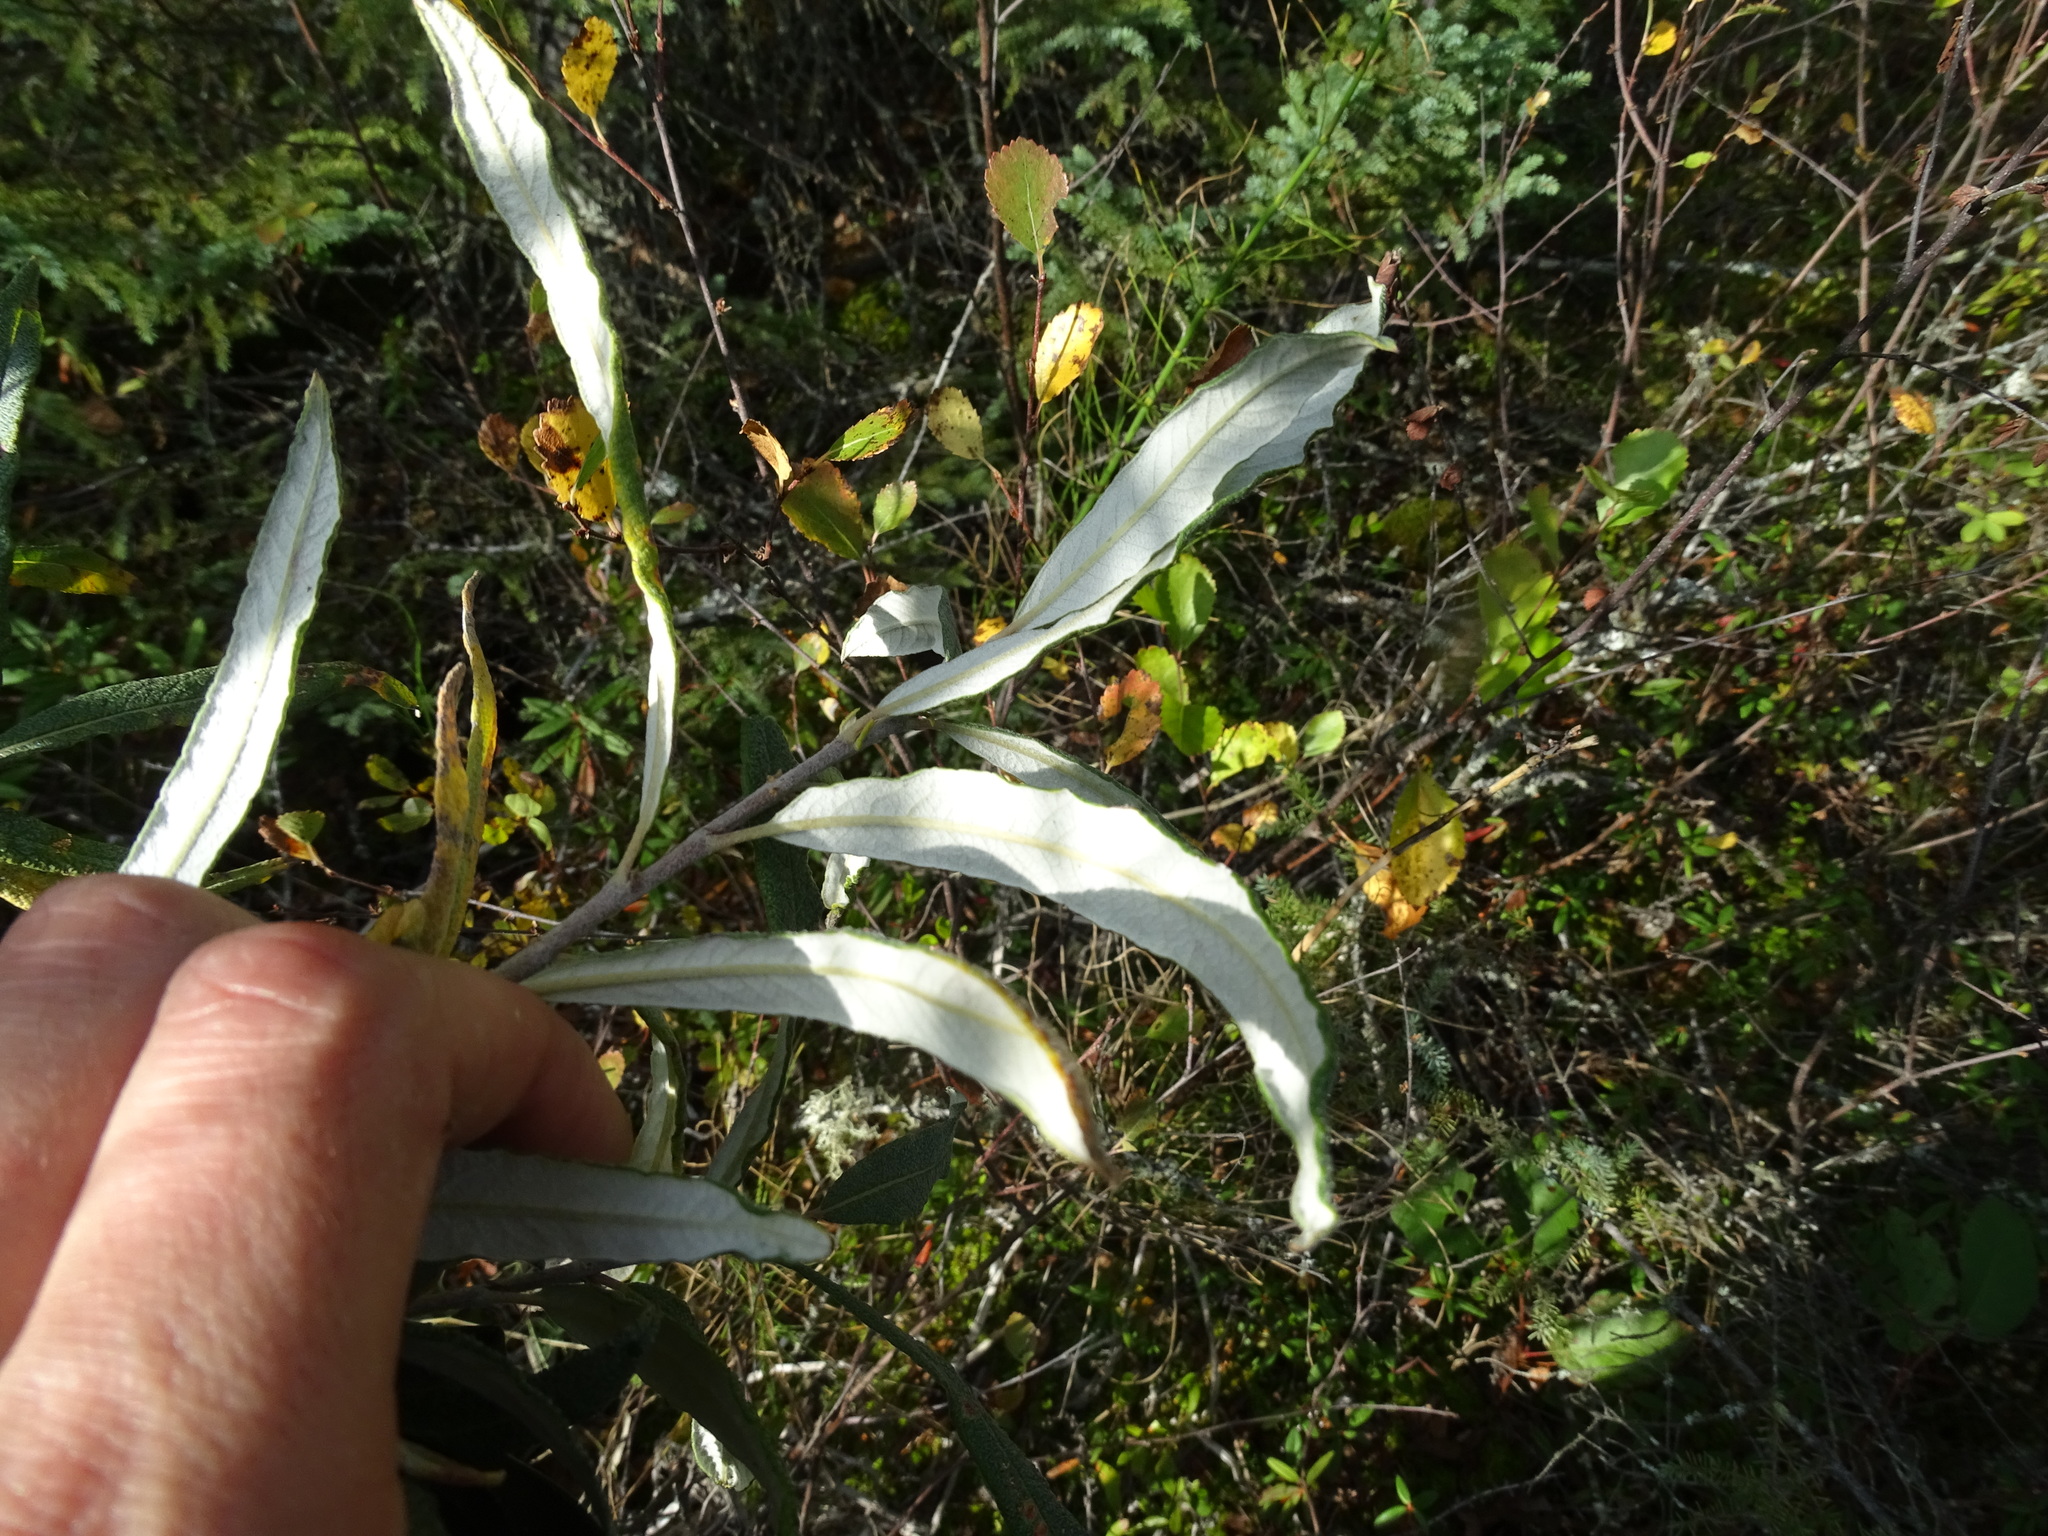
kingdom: Plantae
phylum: Tracheophyta
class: Magnoliopsida
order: Malpighiales
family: Salicaceae
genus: Salix
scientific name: Salix candida
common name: Hoary willow
